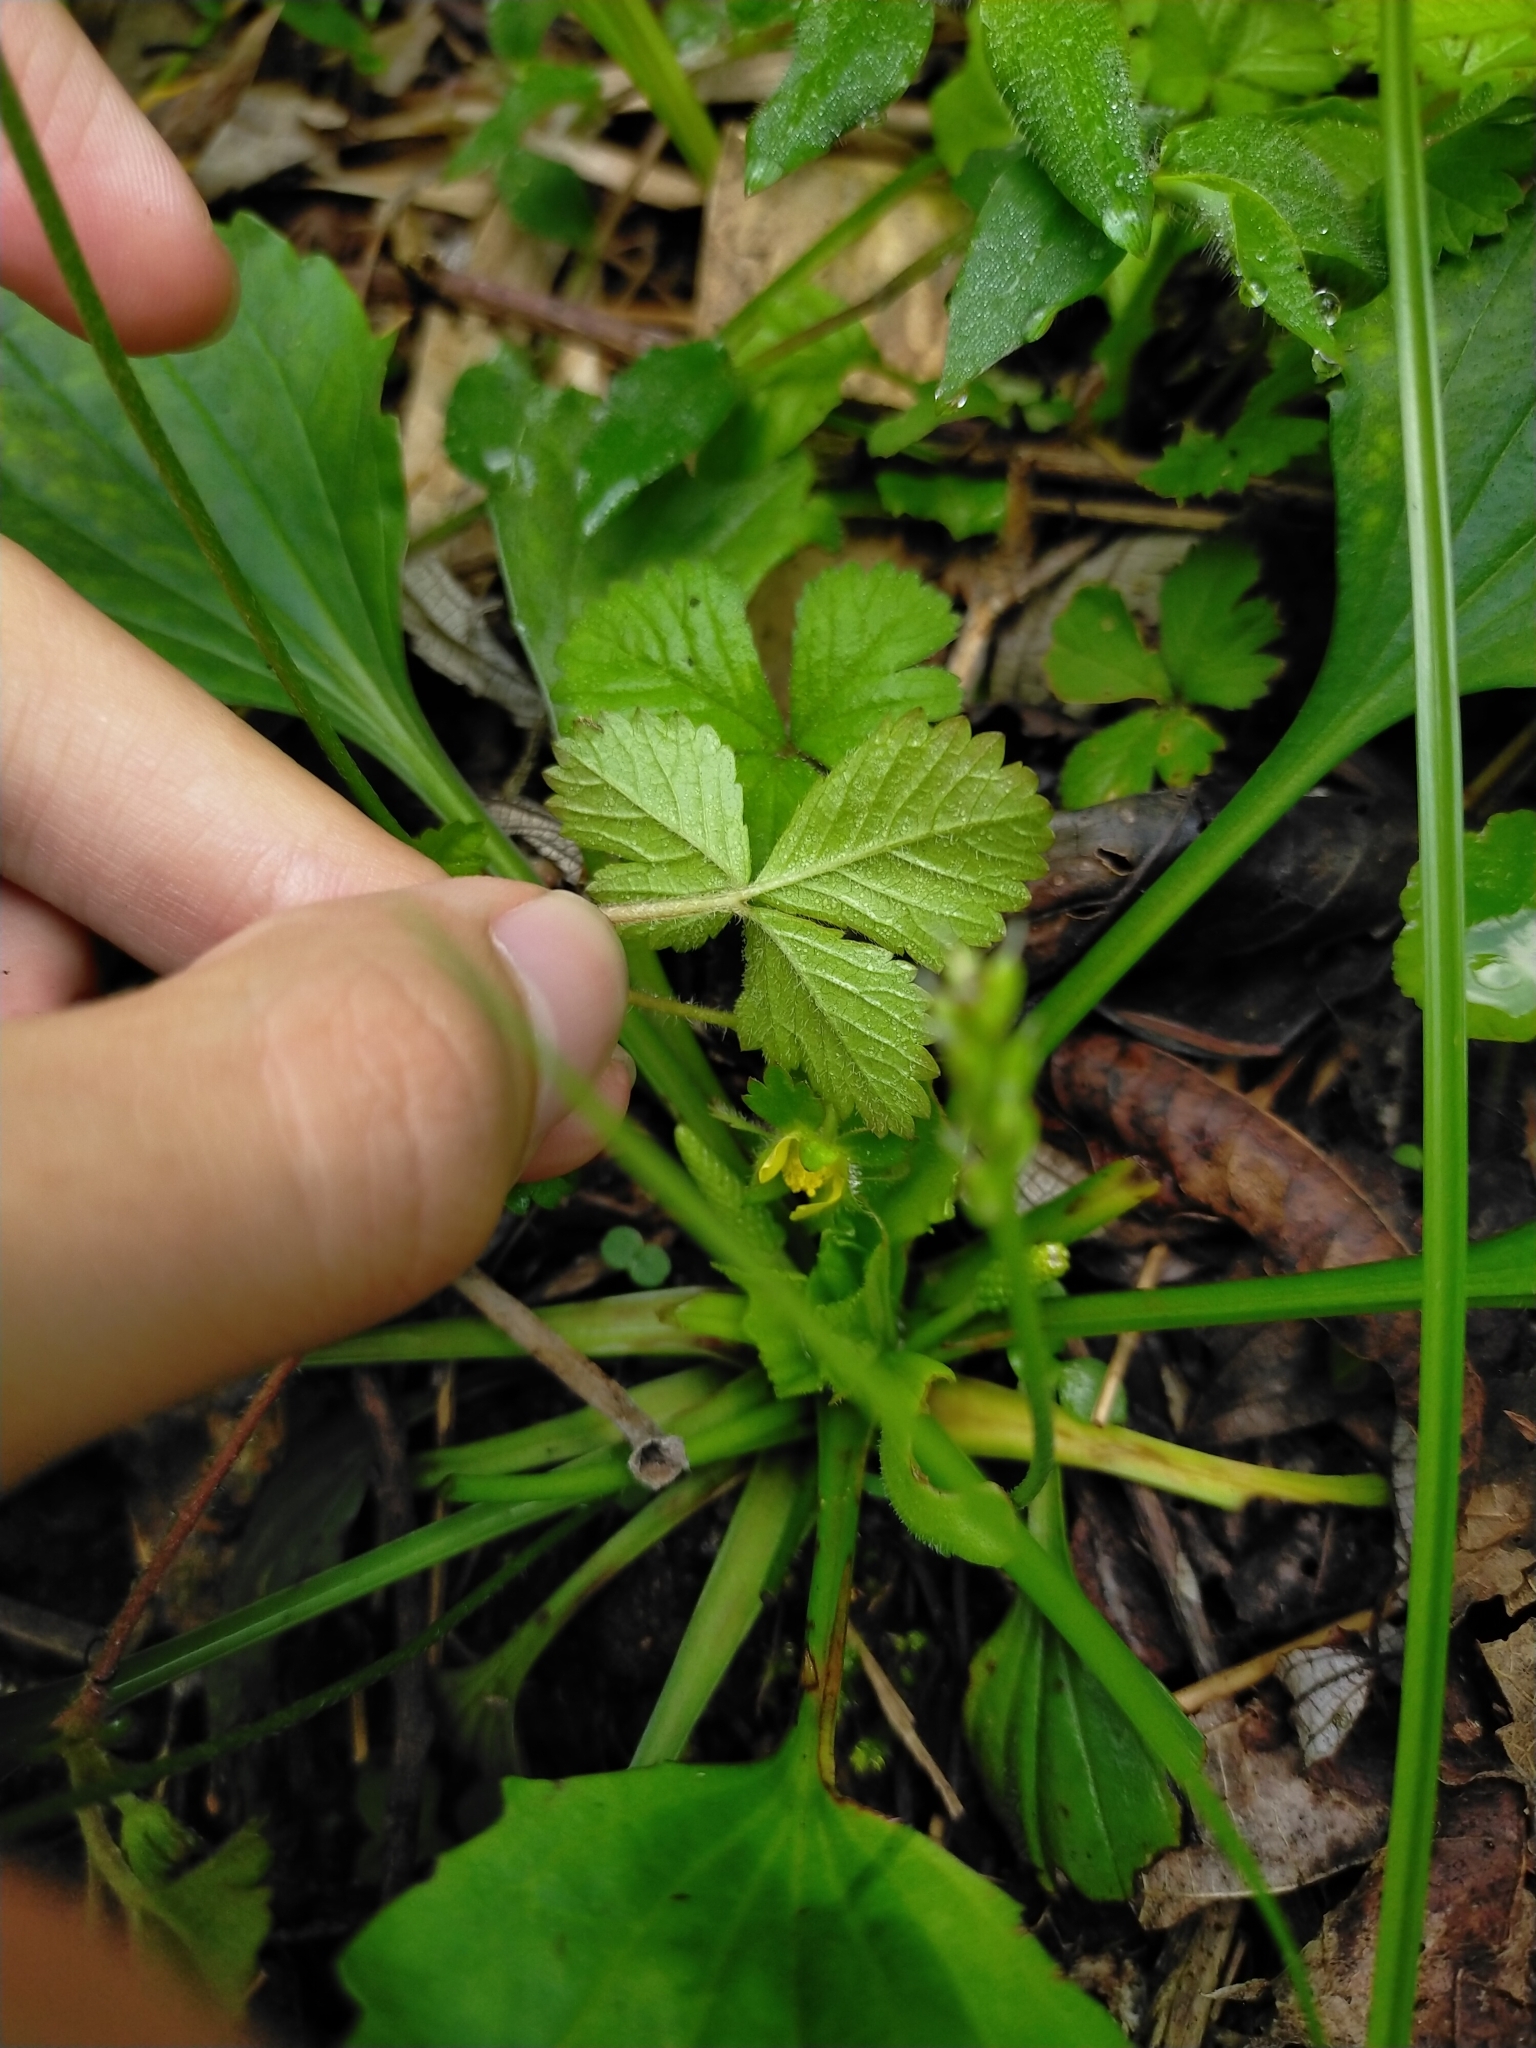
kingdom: Plantae
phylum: Tracheophyta
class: Magnoliopsida
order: Rosales
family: Rosaceae
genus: Potentilla
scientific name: Potentilla indica
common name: Yellow-flowered strawberry
